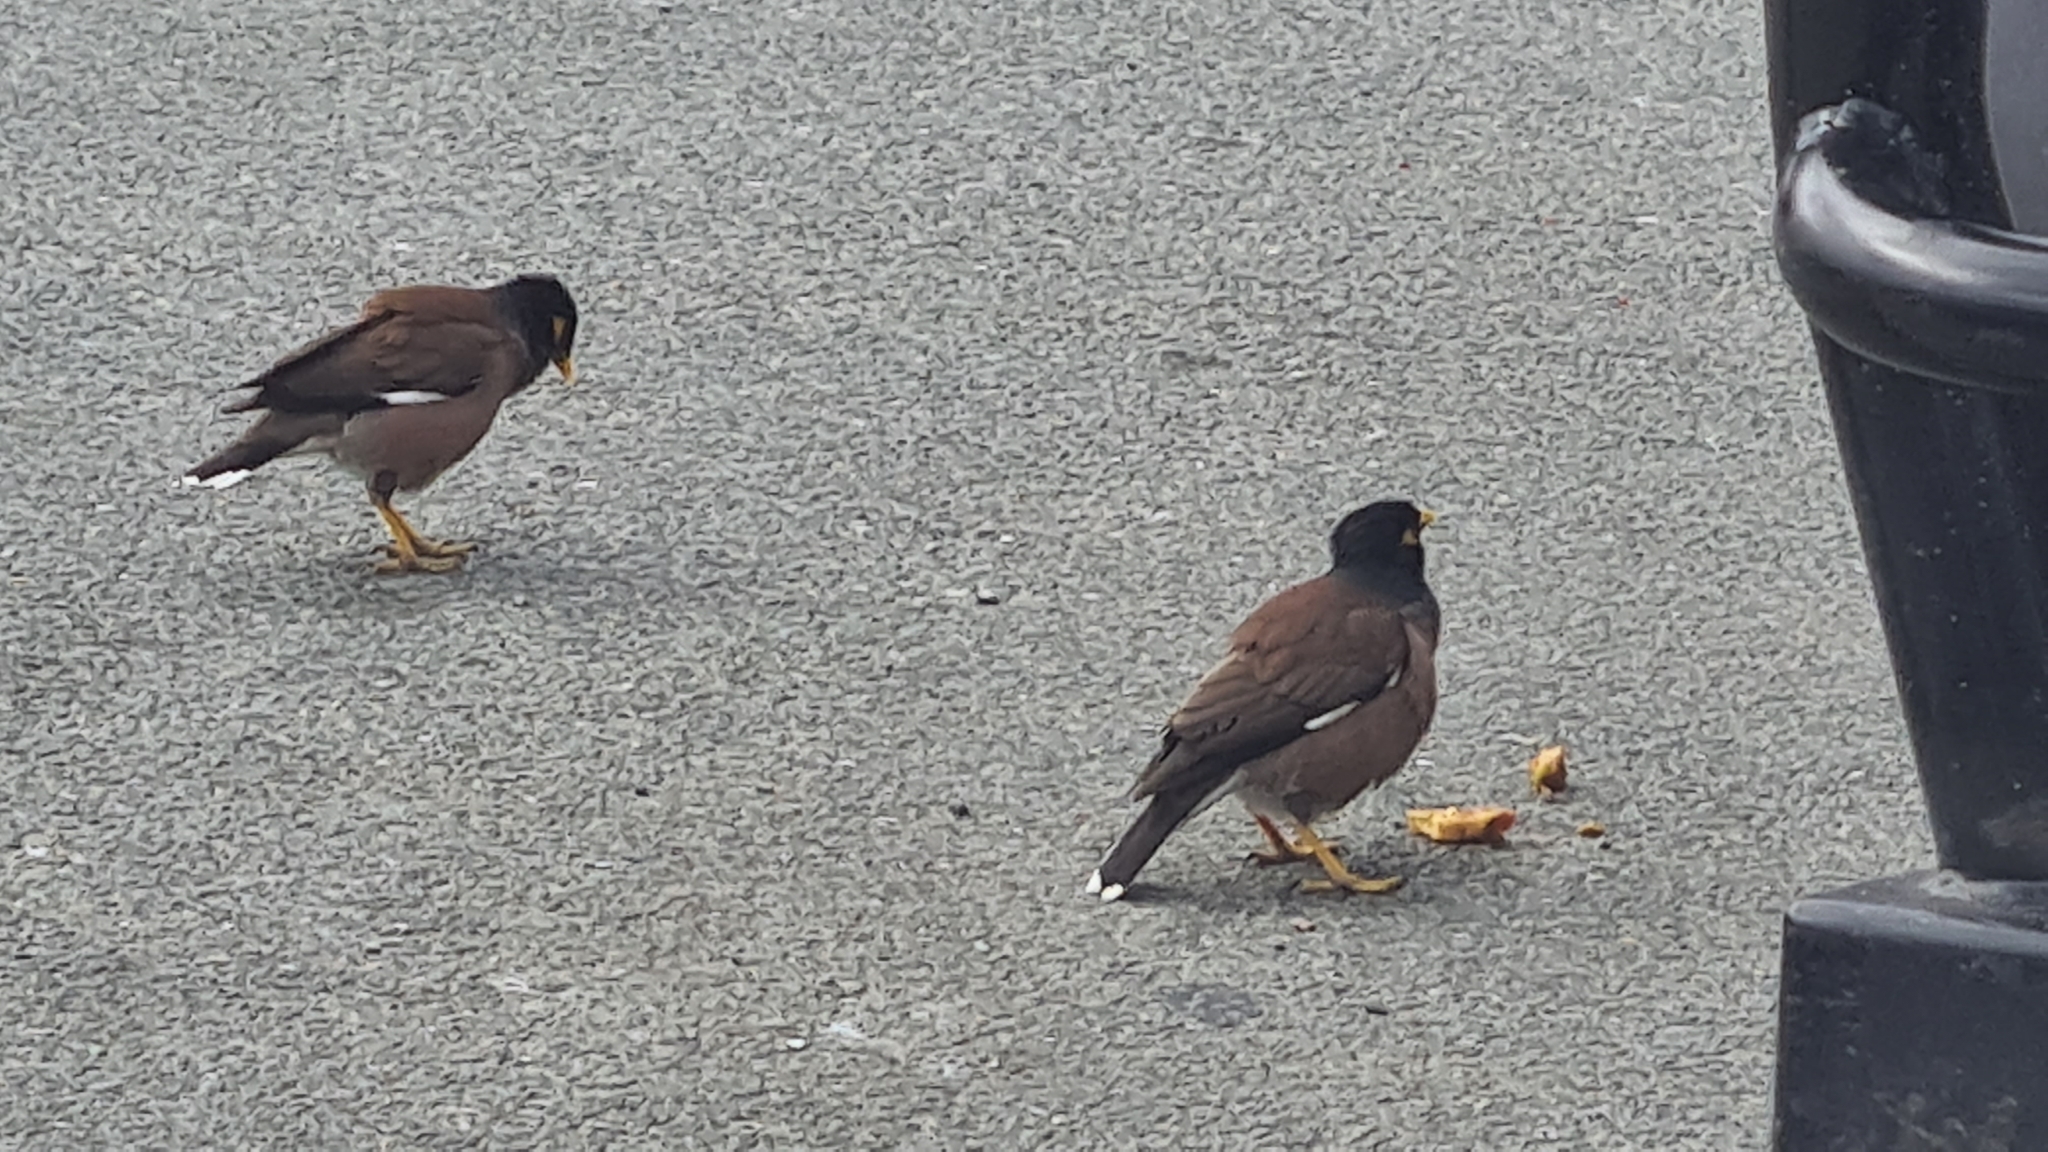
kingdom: Animalia
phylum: Chordata
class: Aves
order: Passeriformes
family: Sturnidae
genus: Acridotheres
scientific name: Acridotheres tristis
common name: Common myna
